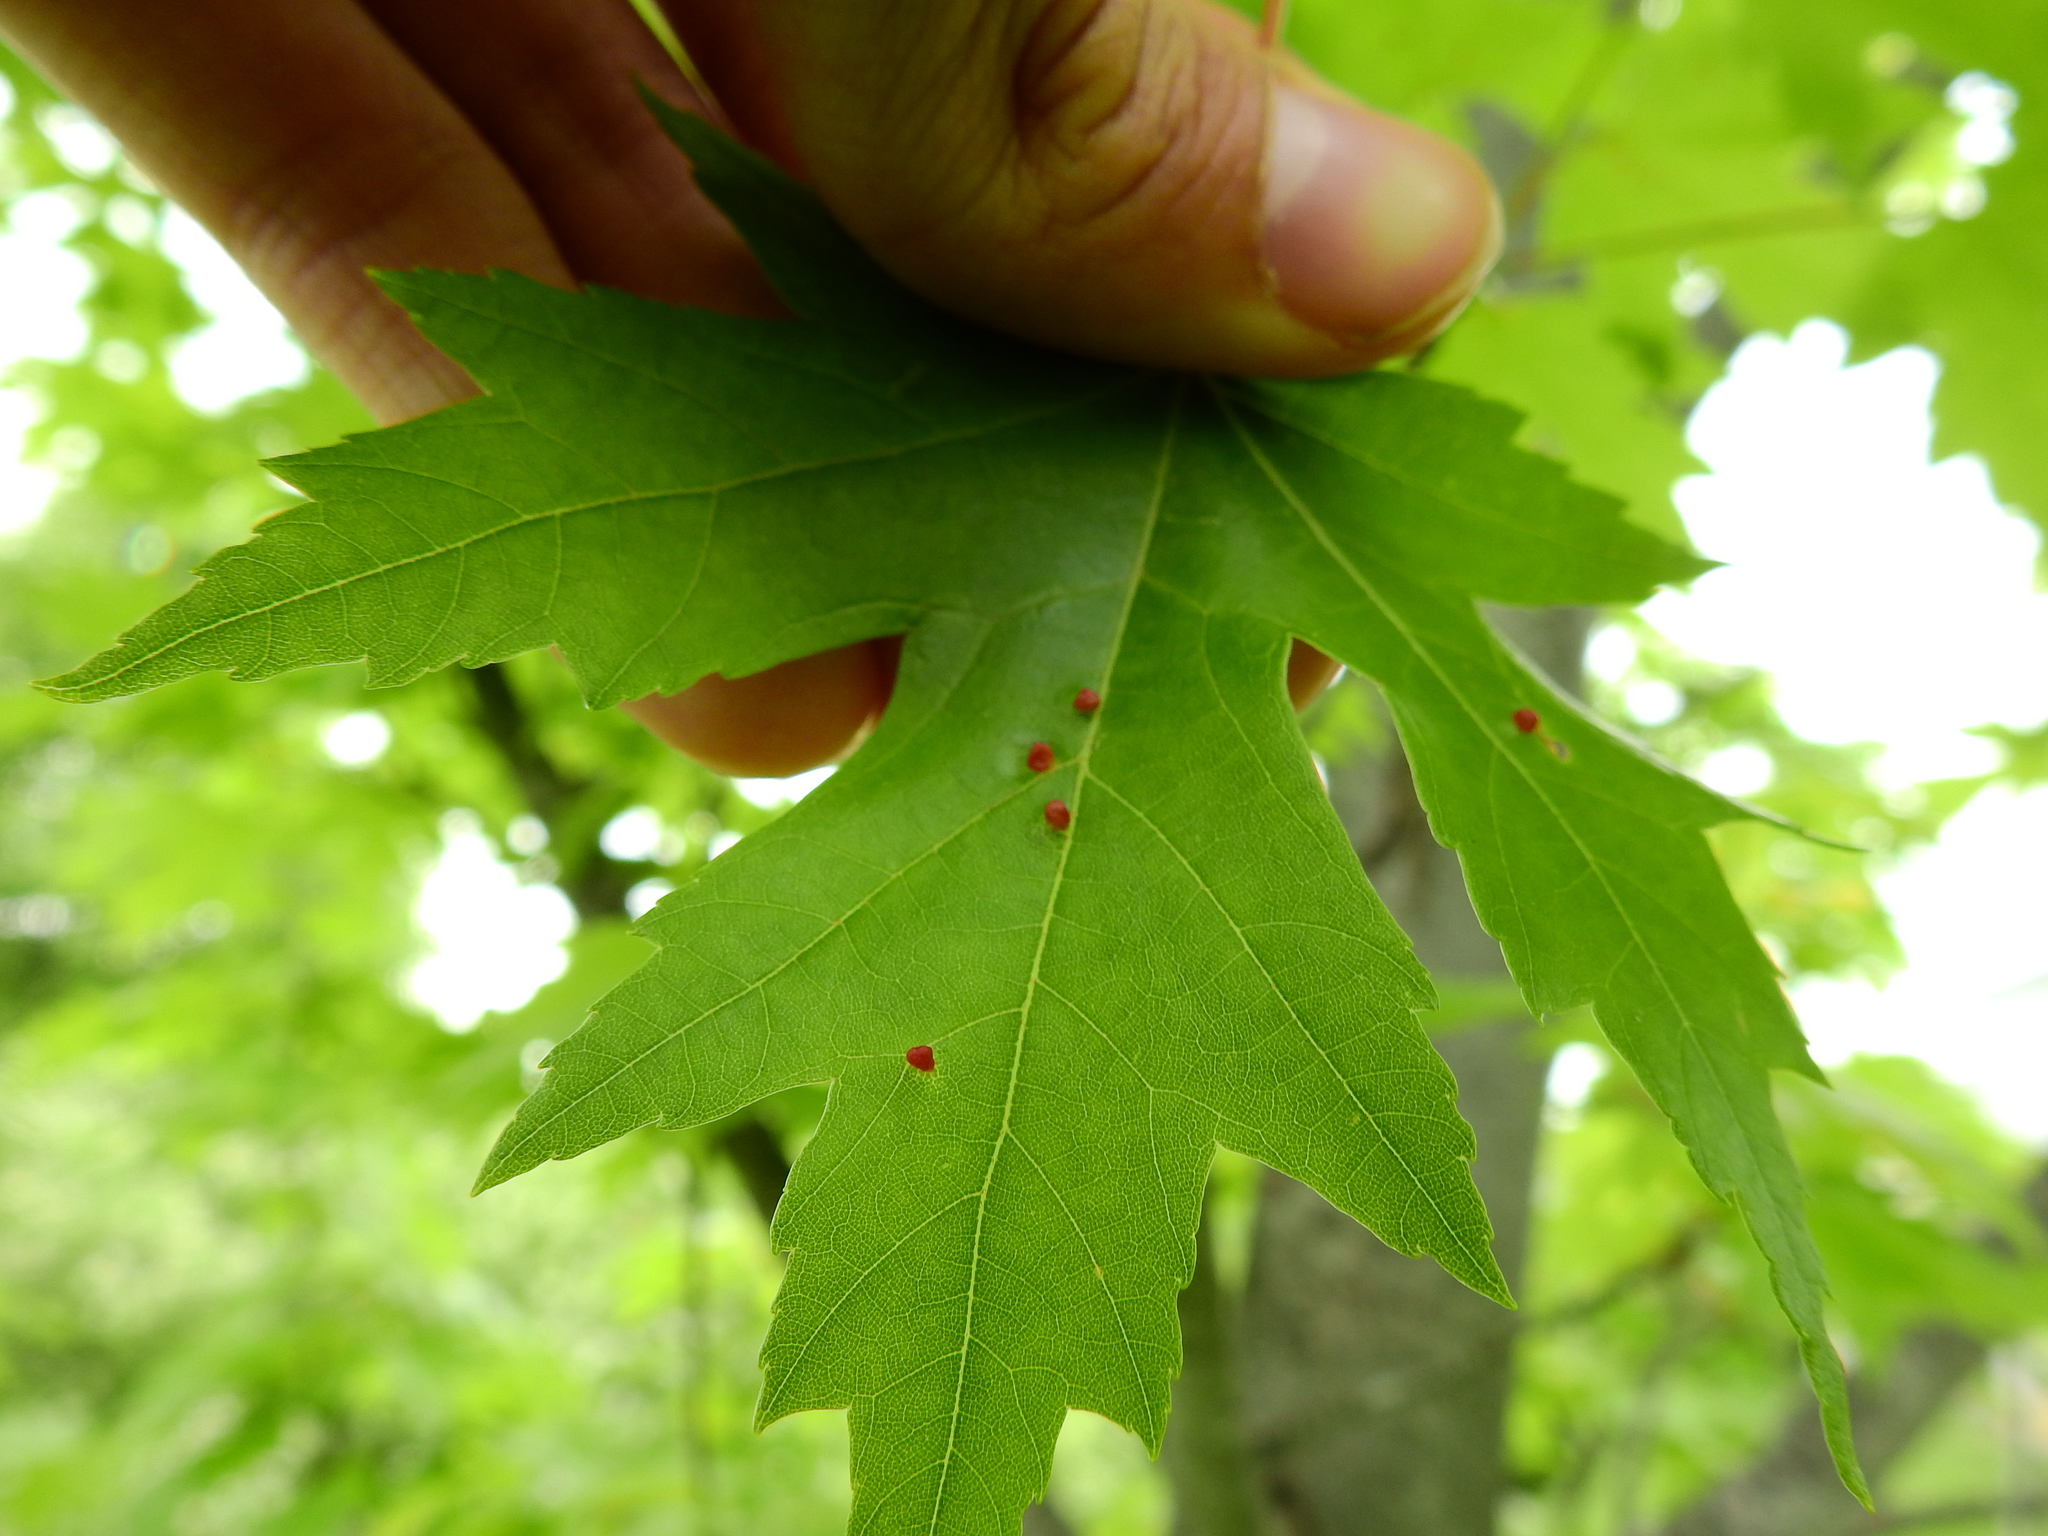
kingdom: Animalia
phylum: Arthropoda
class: Arachnida
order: Trombidiformes
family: Eriophyidae
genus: Vasates
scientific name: Vasates quadripedes
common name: Maple bladder gall mite
